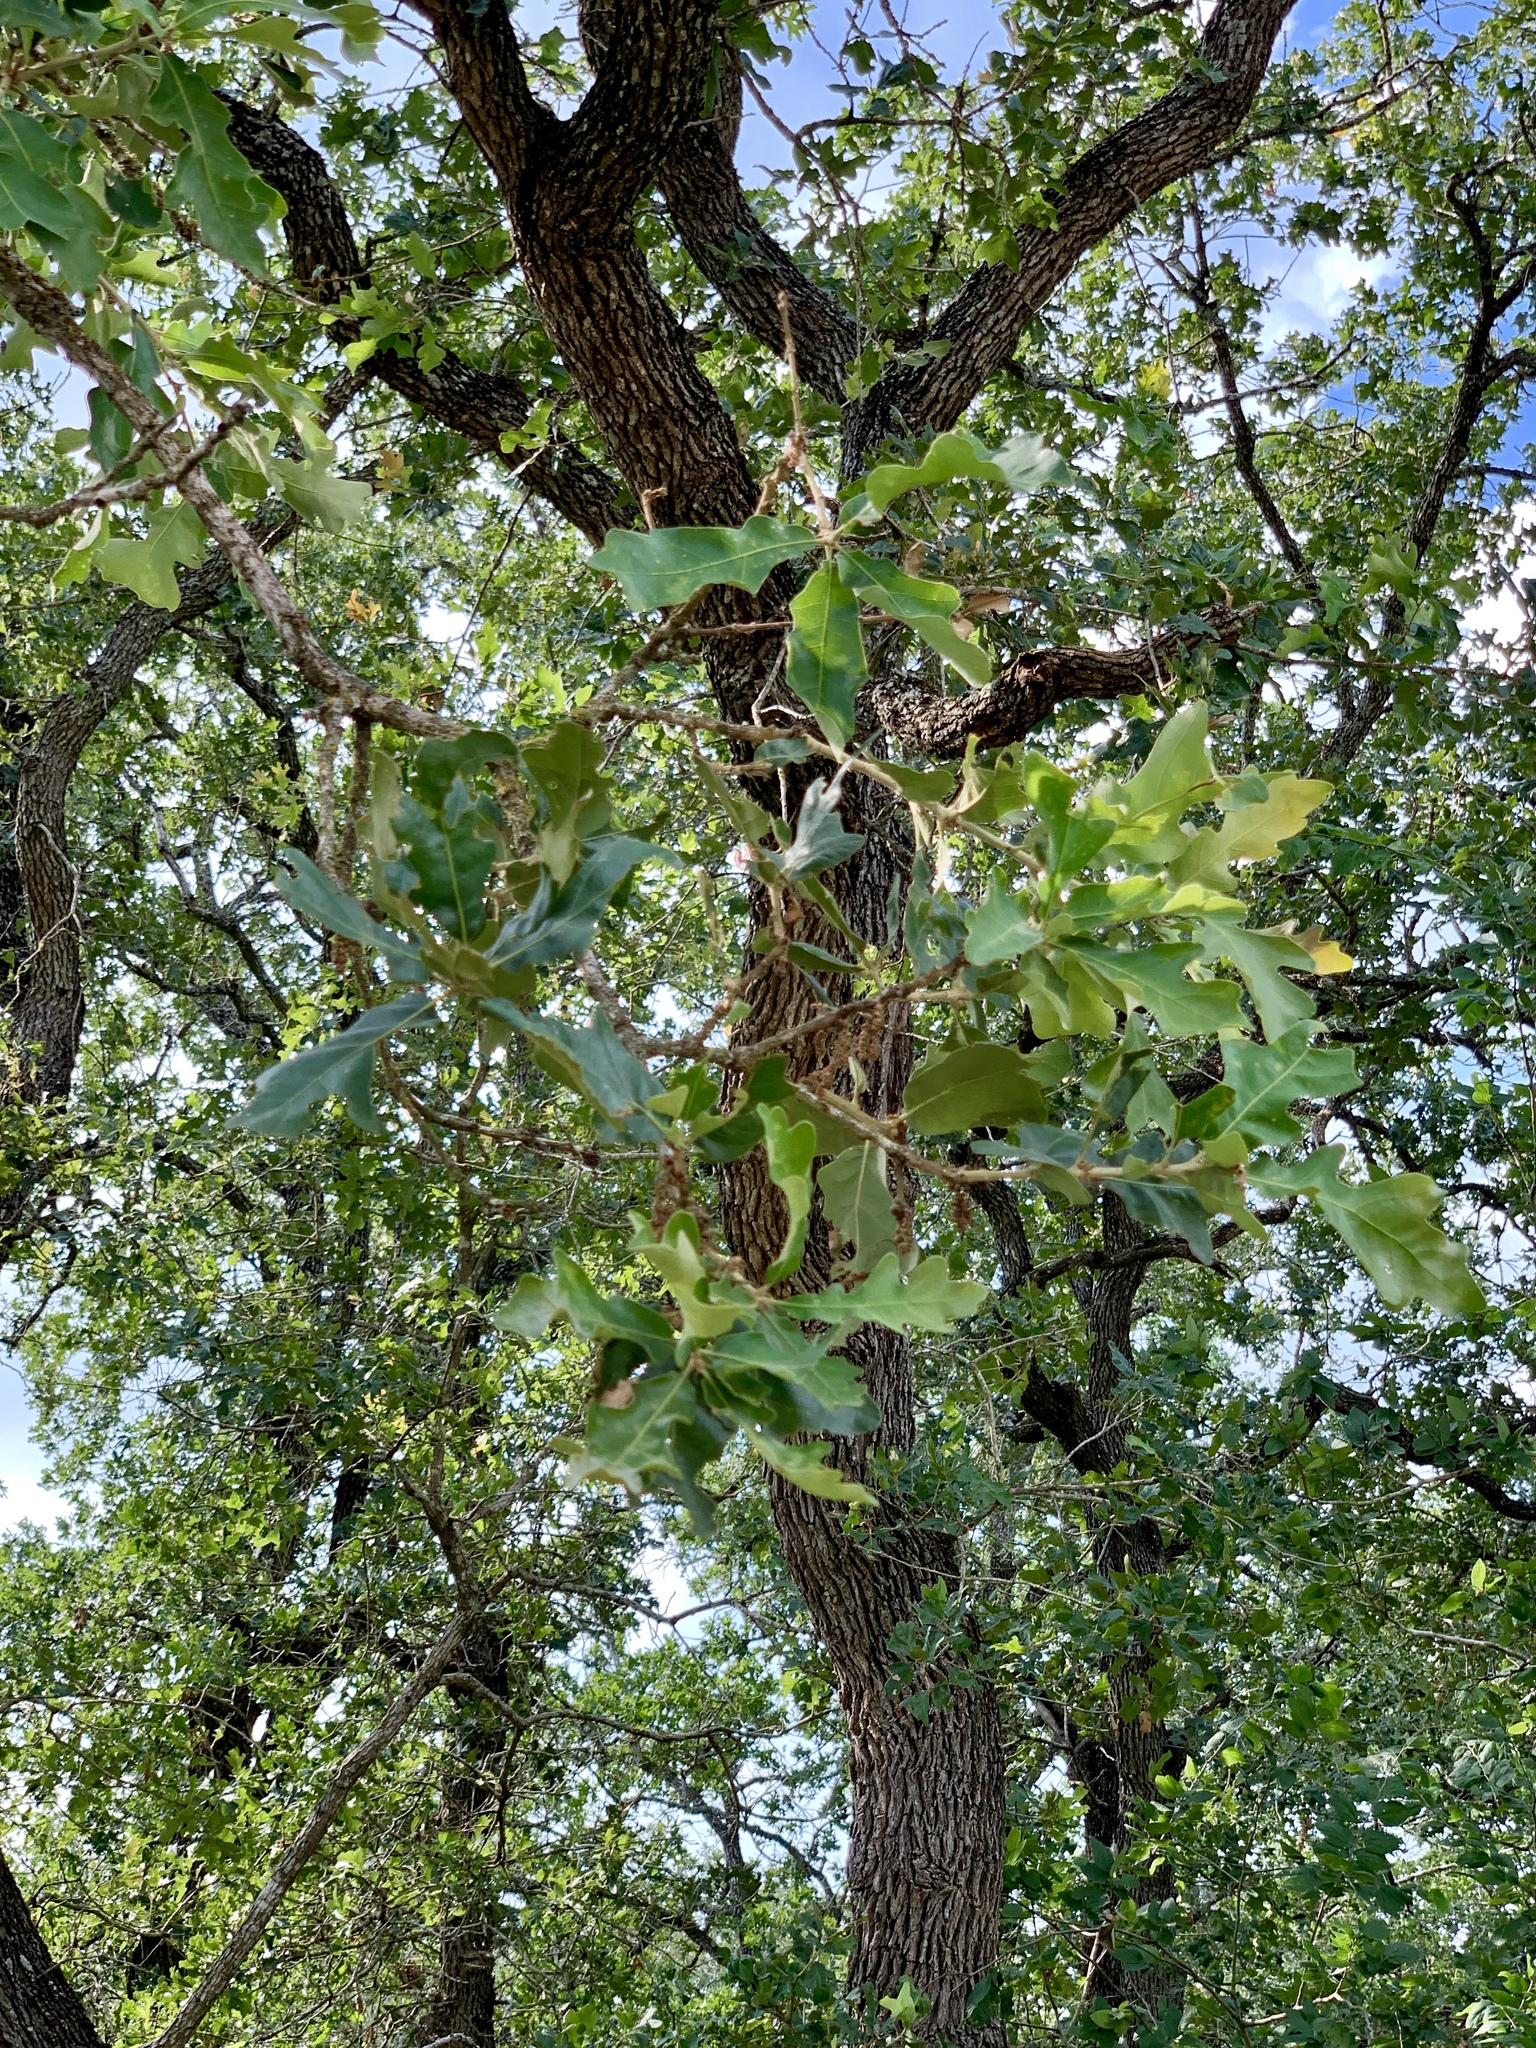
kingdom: Plantae
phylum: Tracheophyta
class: Magnoliopsida
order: Fagales
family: Fagaceae
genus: Quercus
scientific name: Quercus margaretiae
